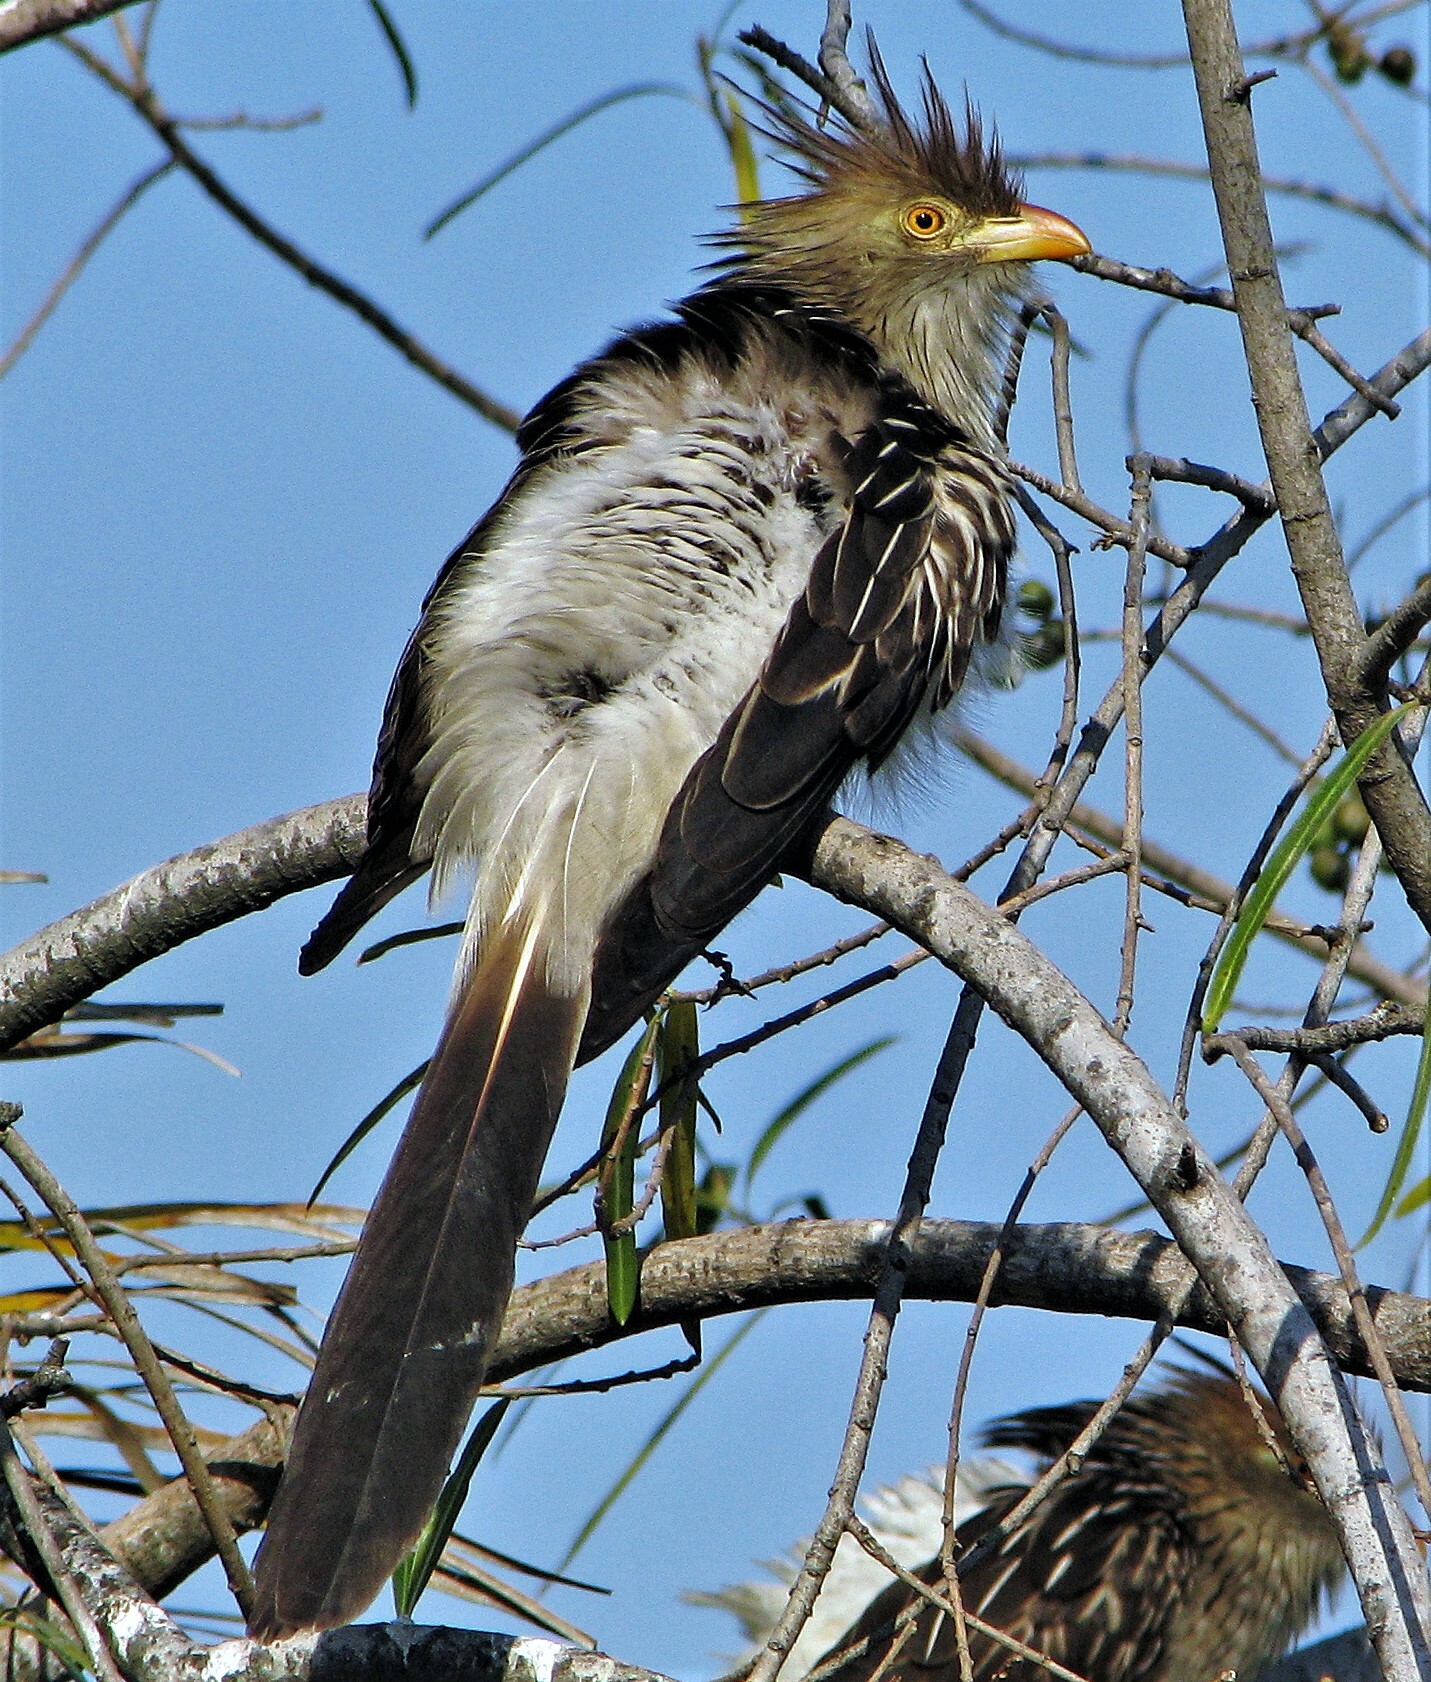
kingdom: Animalia
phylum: Chordata
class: Aves
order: Cuculiformes
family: Cuculidae
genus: Guira
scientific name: Guira guira
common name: Guira cuckoo
